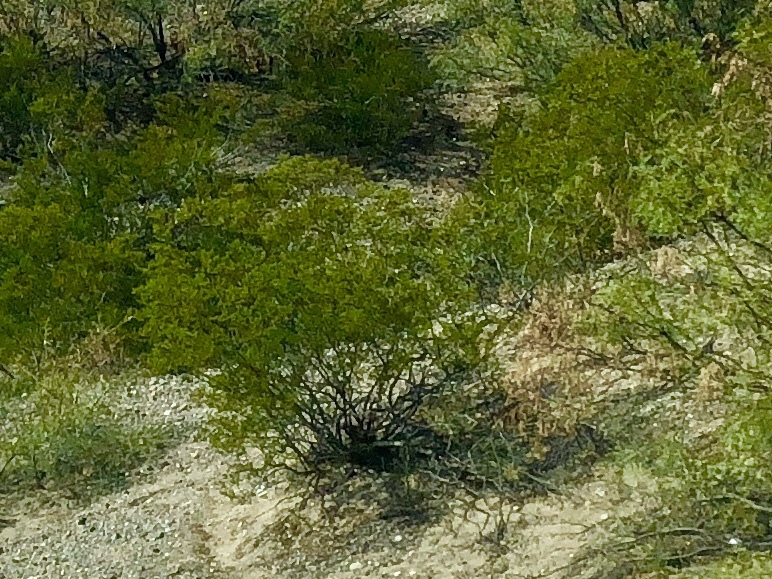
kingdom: Plantae
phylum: Tracheophyta
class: Magnoliopsida
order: Zygophyllales
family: Zygophyllaceae
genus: Larrea
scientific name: Larrea tridentata
